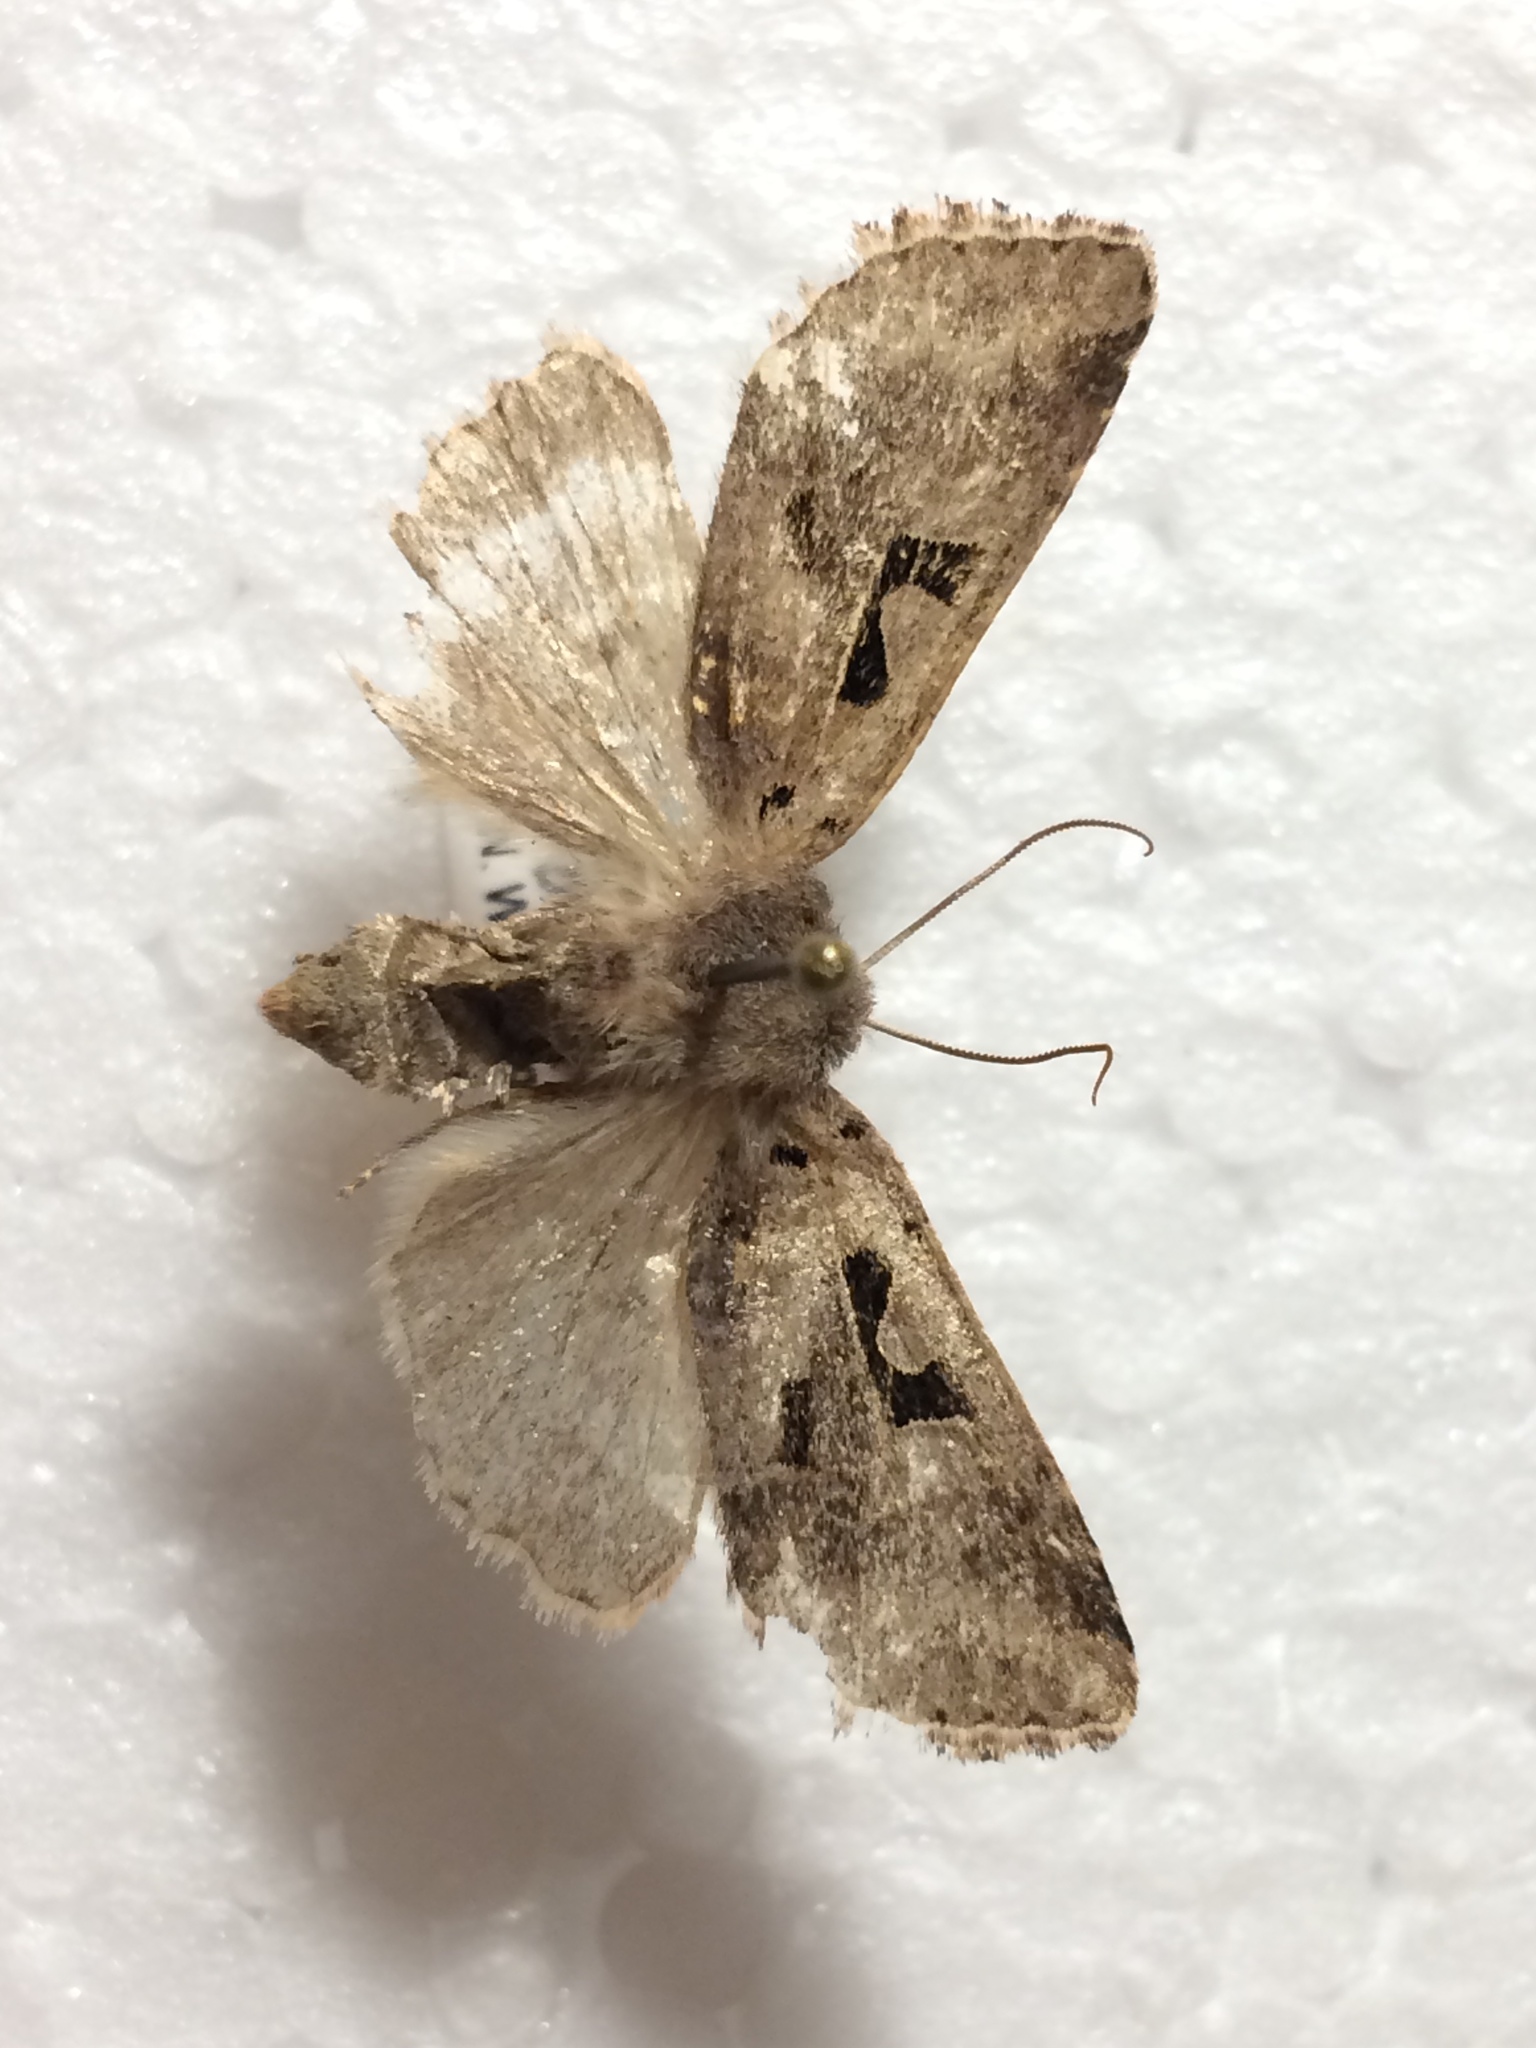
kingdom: Animalia
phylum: Arthropoda
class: Insecta
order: Lepidoptera
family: Noctuidae
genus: Orthosia
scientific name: Orthosia gothica
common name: Hebrew character
